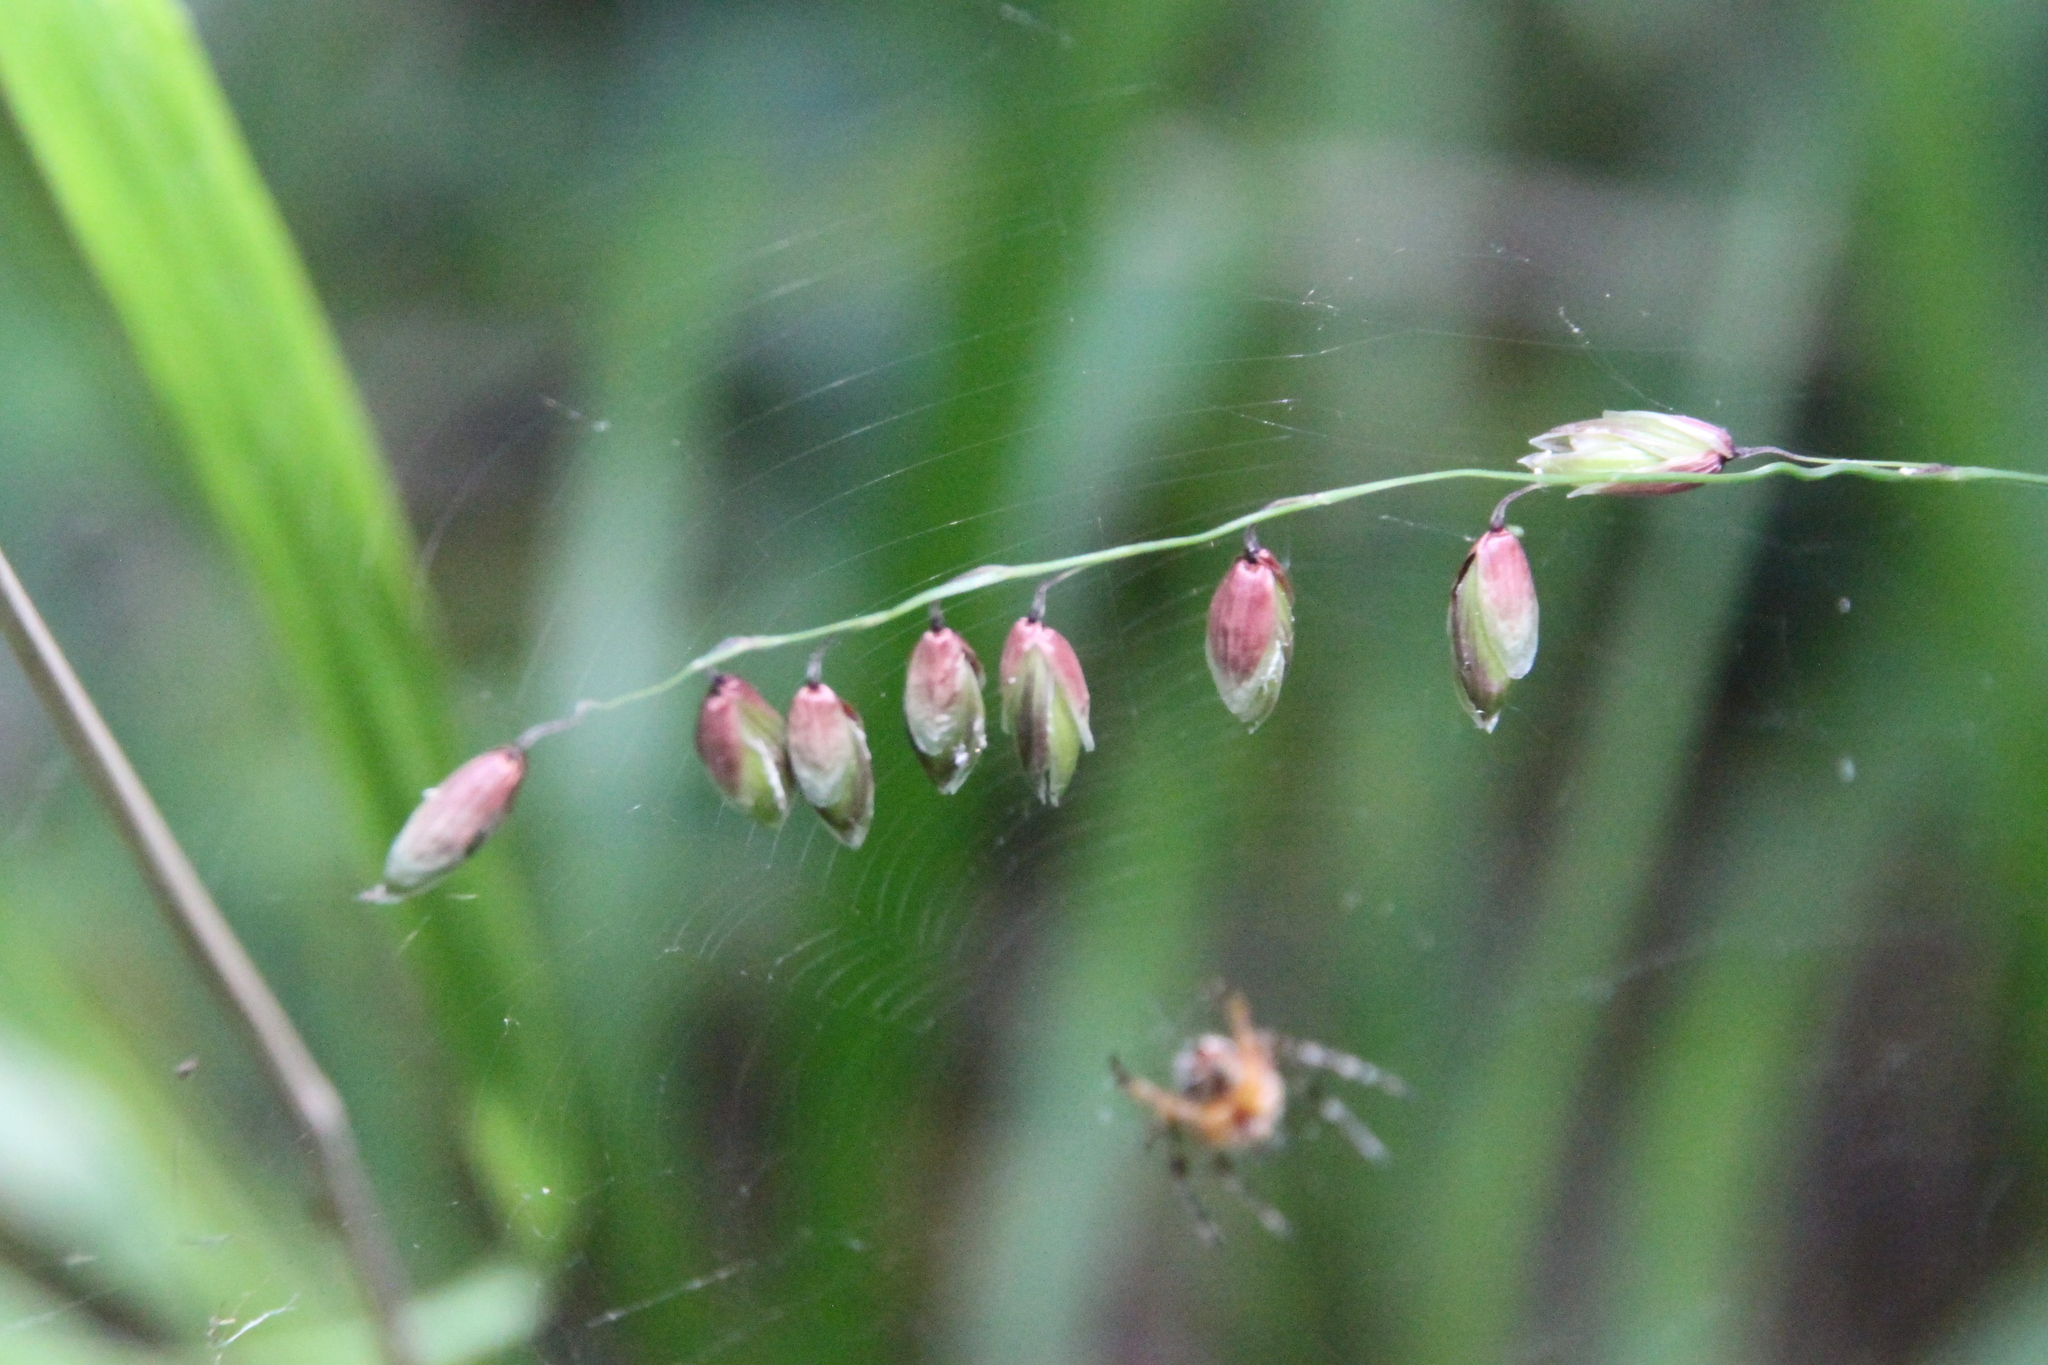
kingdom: Plantae
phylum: Tracheophyta
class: Liliopsida
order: Poales
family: Poaceae
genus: Melica
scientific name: Melica nutans
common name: Mountain melick
